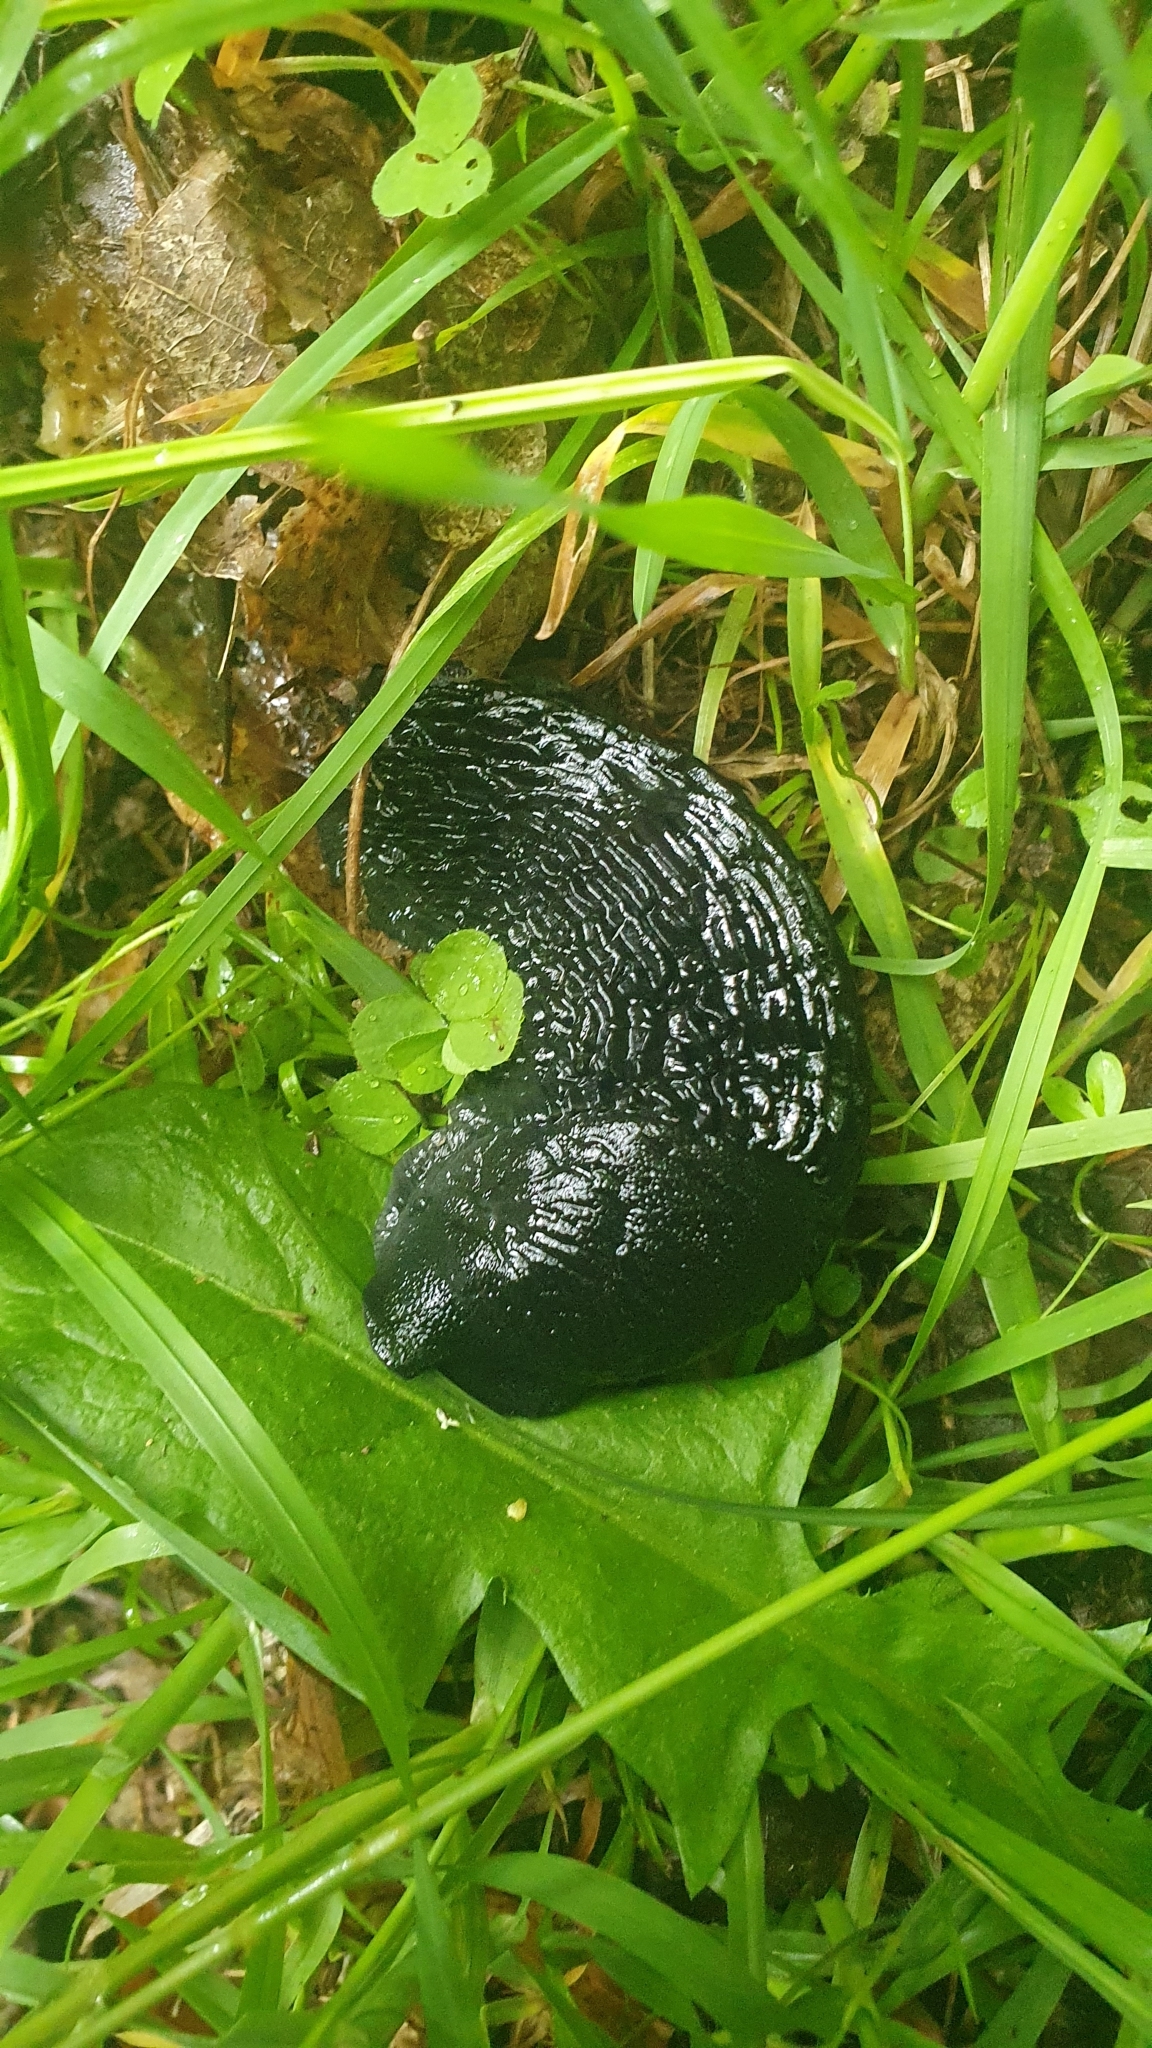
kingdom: Animalia
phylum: Mollusca
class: Gastropoda
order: Stylommatophora
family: Arionidae
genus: Arion
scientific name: Arion ater
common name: Black arion
